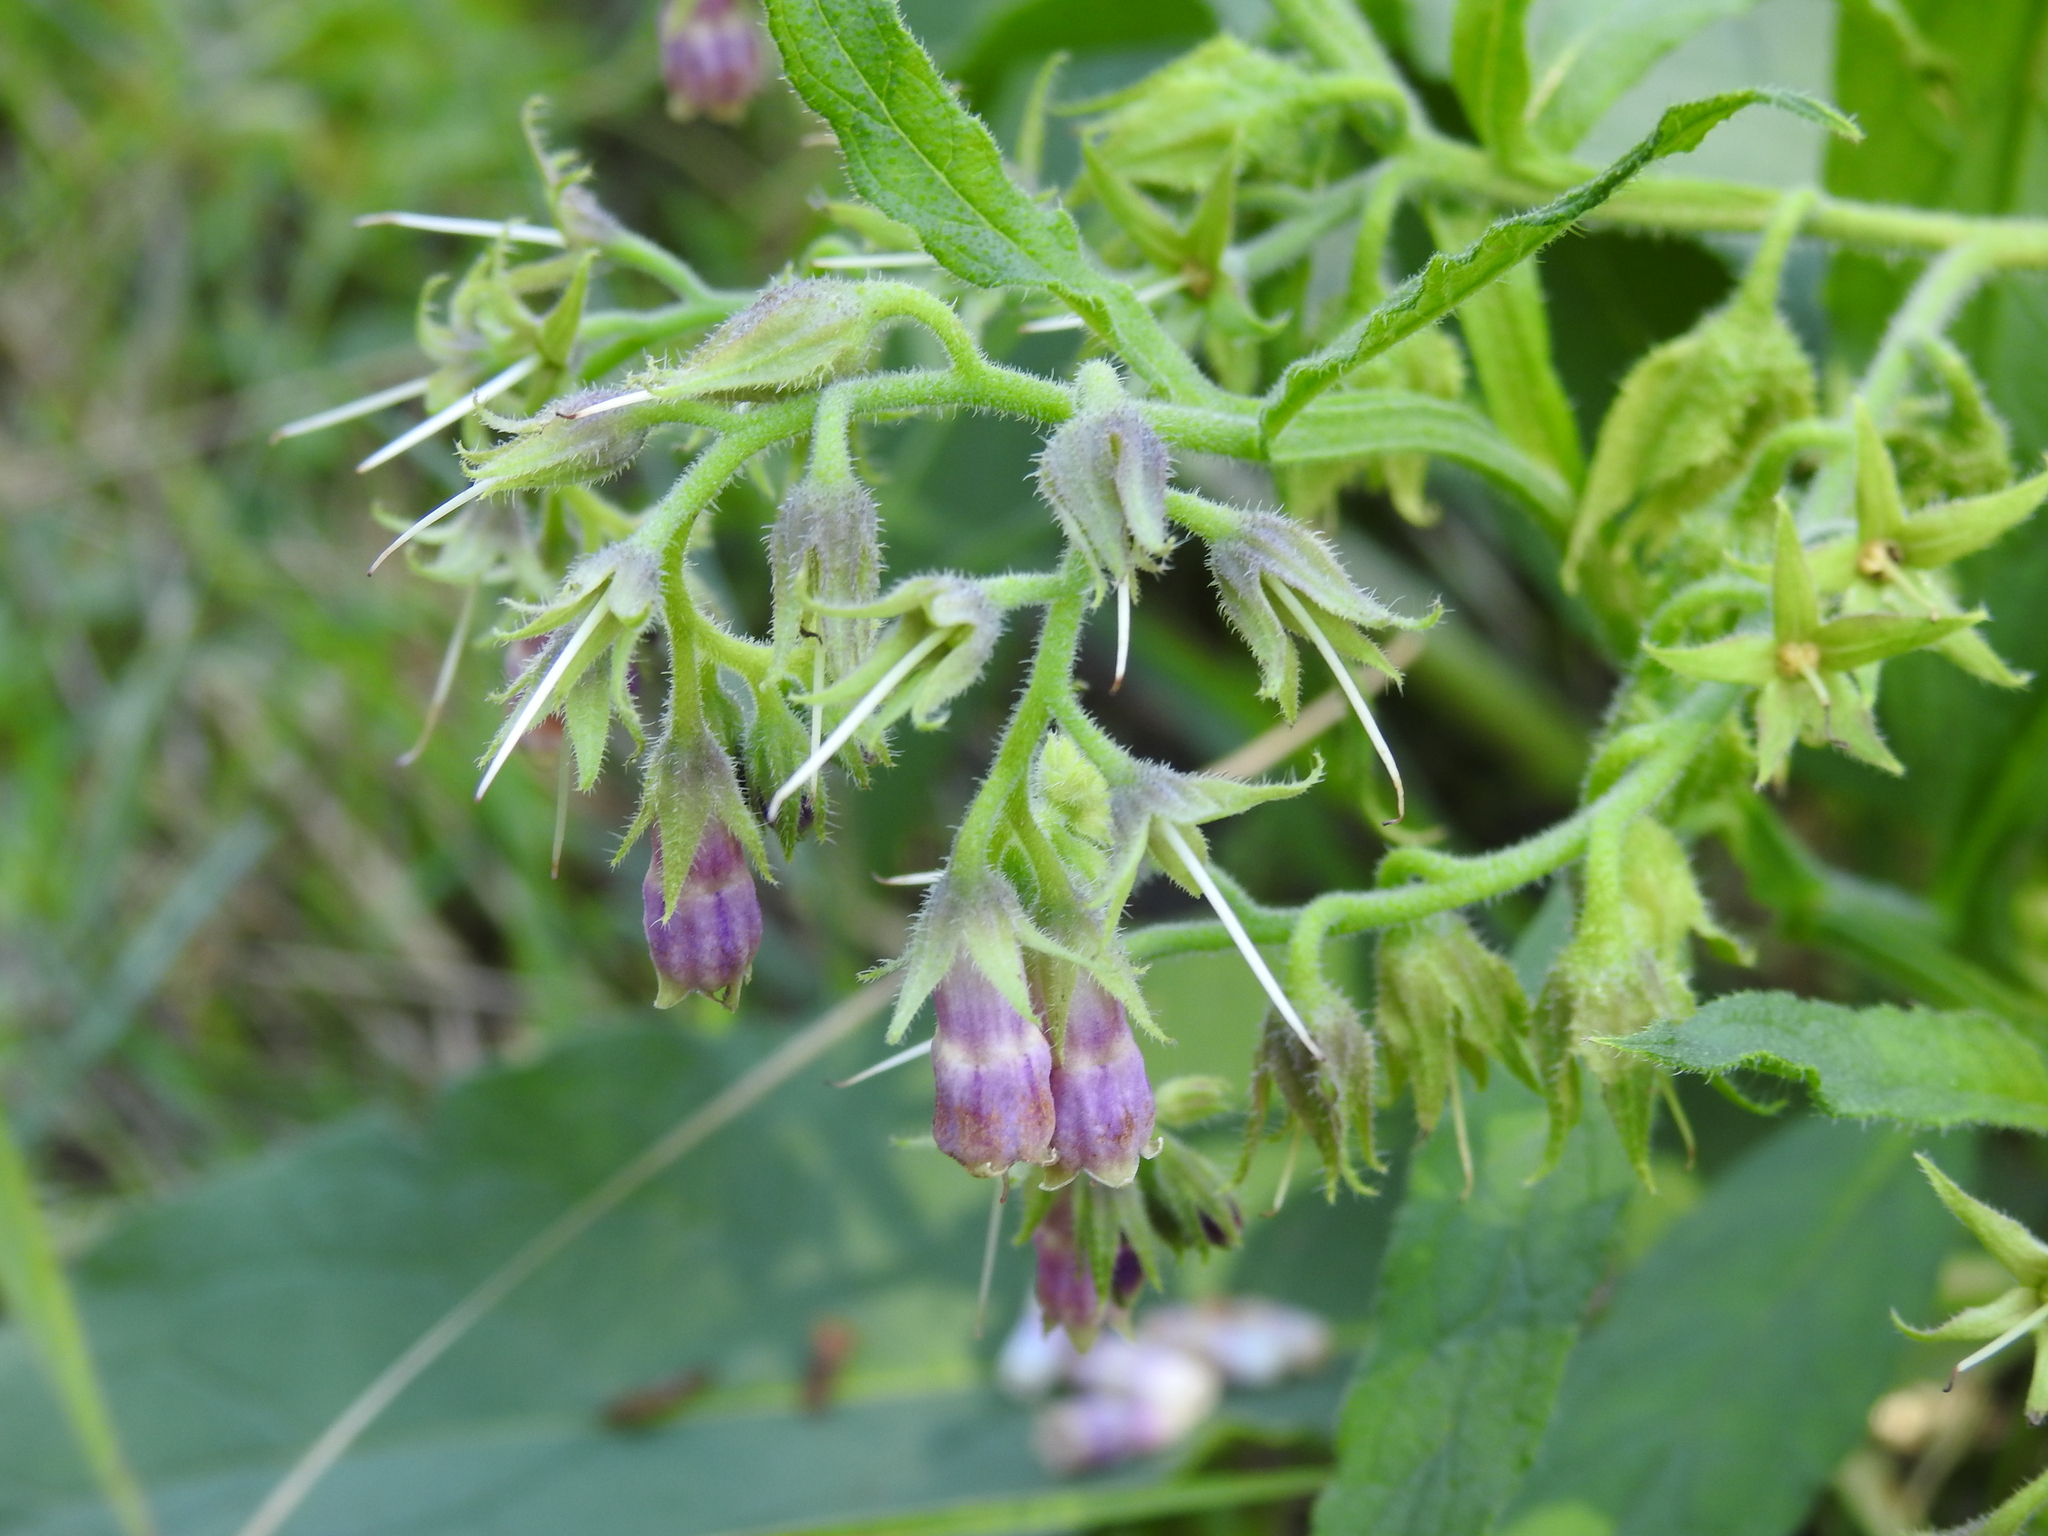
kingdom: Plantae
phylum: Tracheophyta
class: Magnoliopsida
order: Boraginales
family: Boraginaceae
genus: Symphytum
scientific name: Symphytum officinale
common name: Common comfrey
